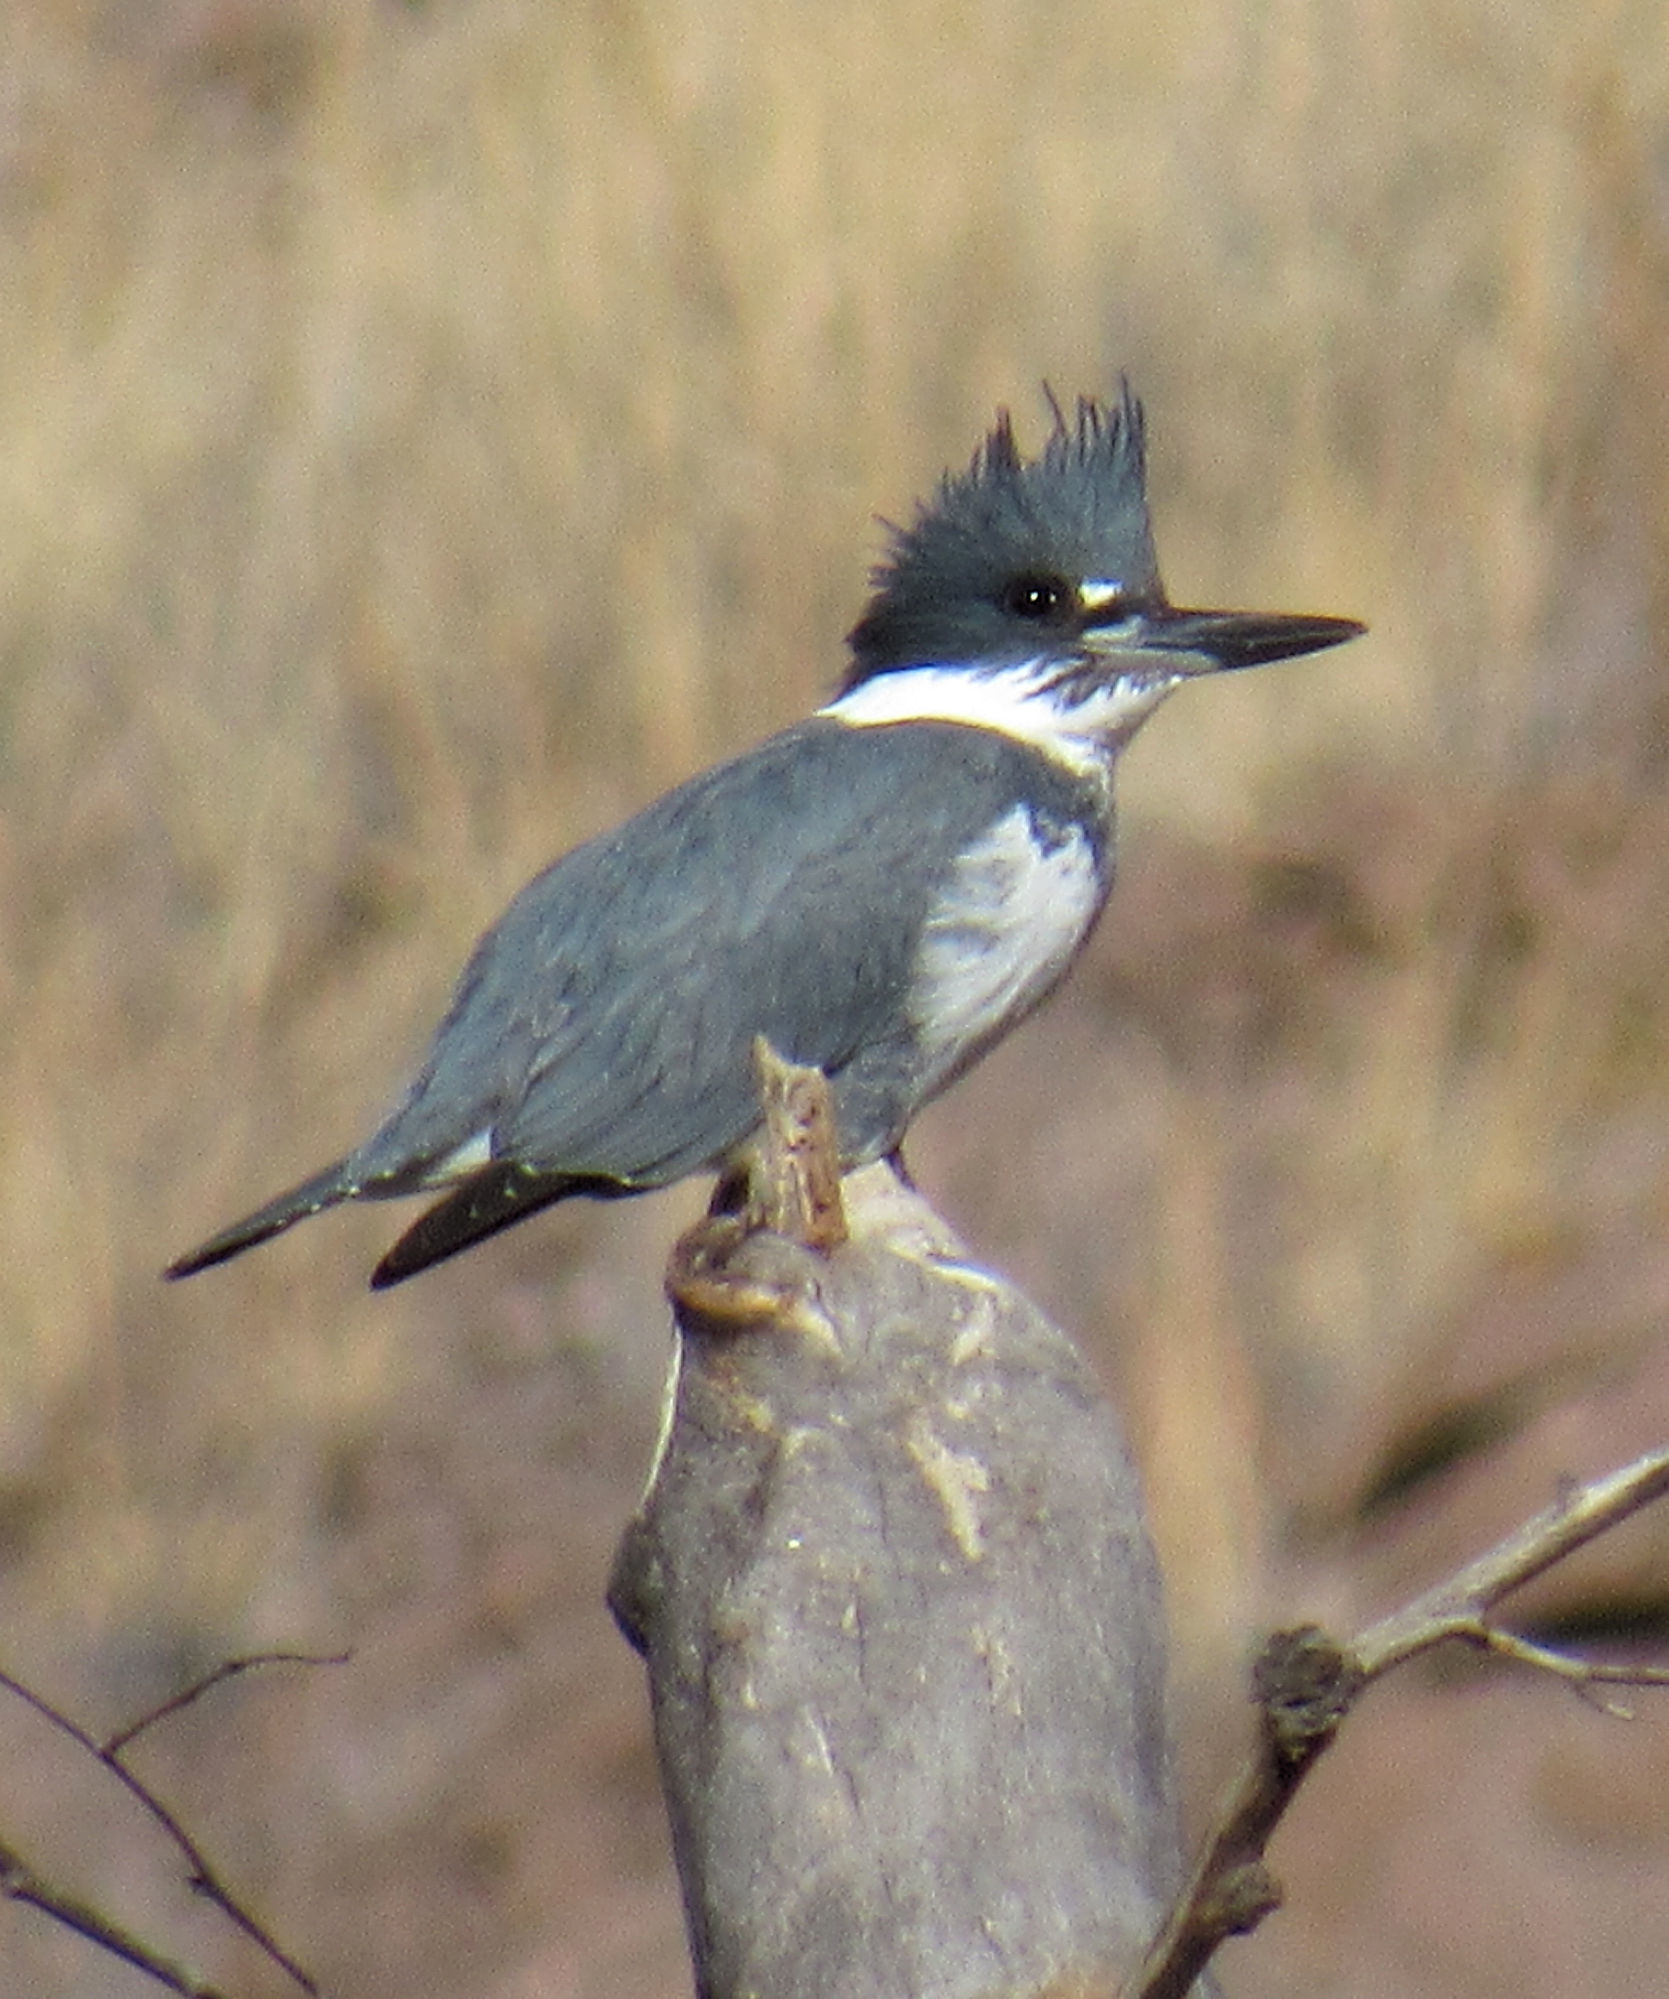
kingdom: Animalia
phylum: Chordata
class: Aves
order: Coraciiformes
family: Alcedinidae
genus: Megaceryle
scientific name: Megaceryle alcyon
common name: Belted kingfisher
